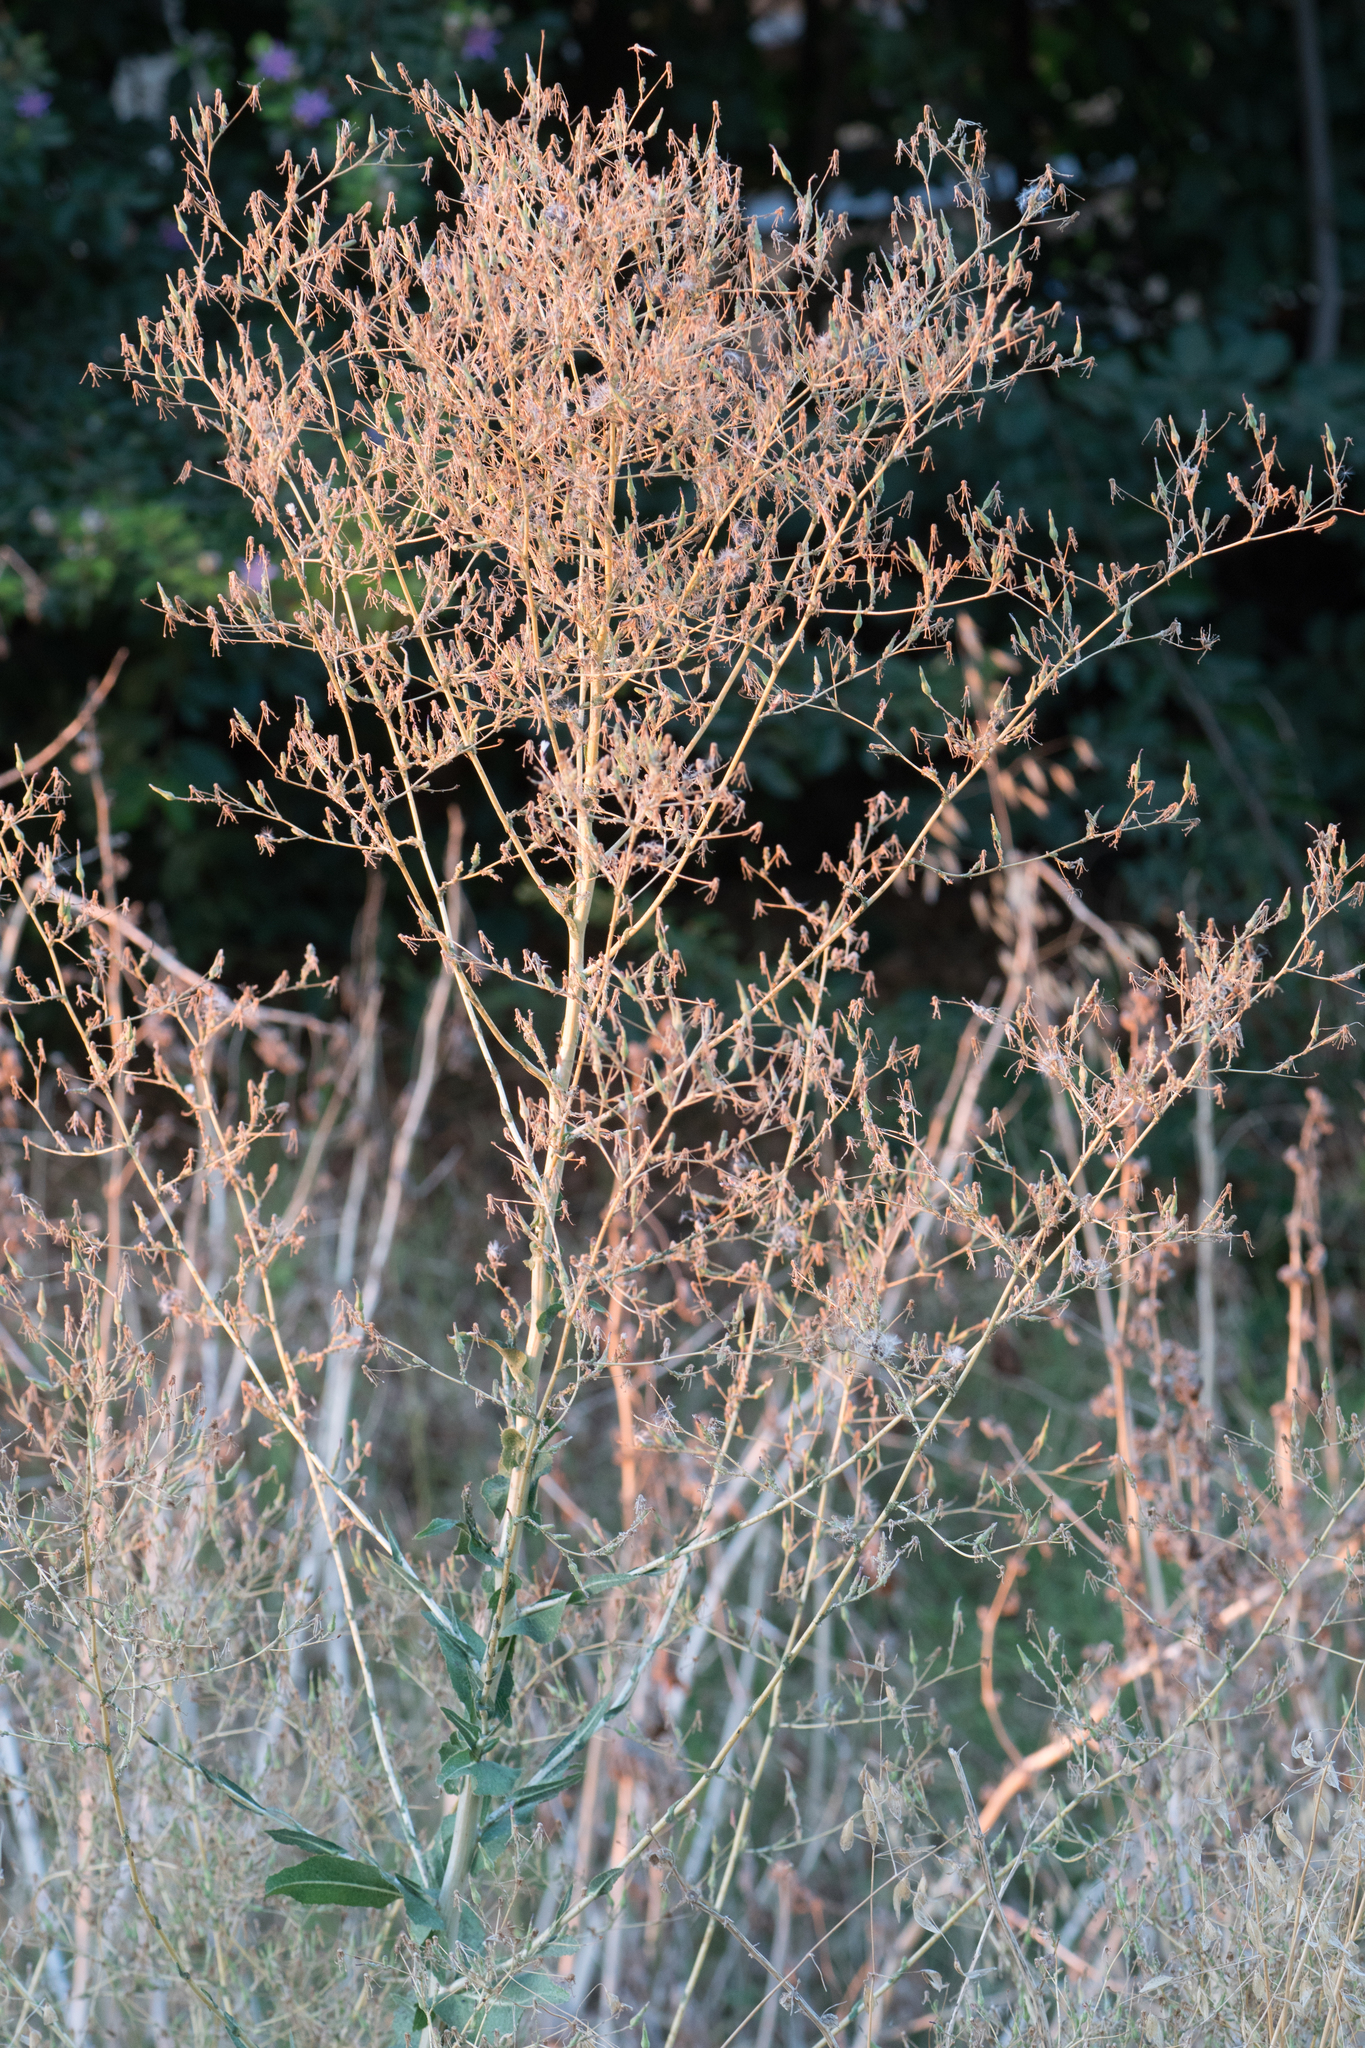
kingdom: Plantae
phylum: Tracheophyta
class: Magnoliopsida
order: Asterales
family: Asteraceae
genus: Lactuca
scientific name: Lactuca serriola
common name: Prickly lettuce
